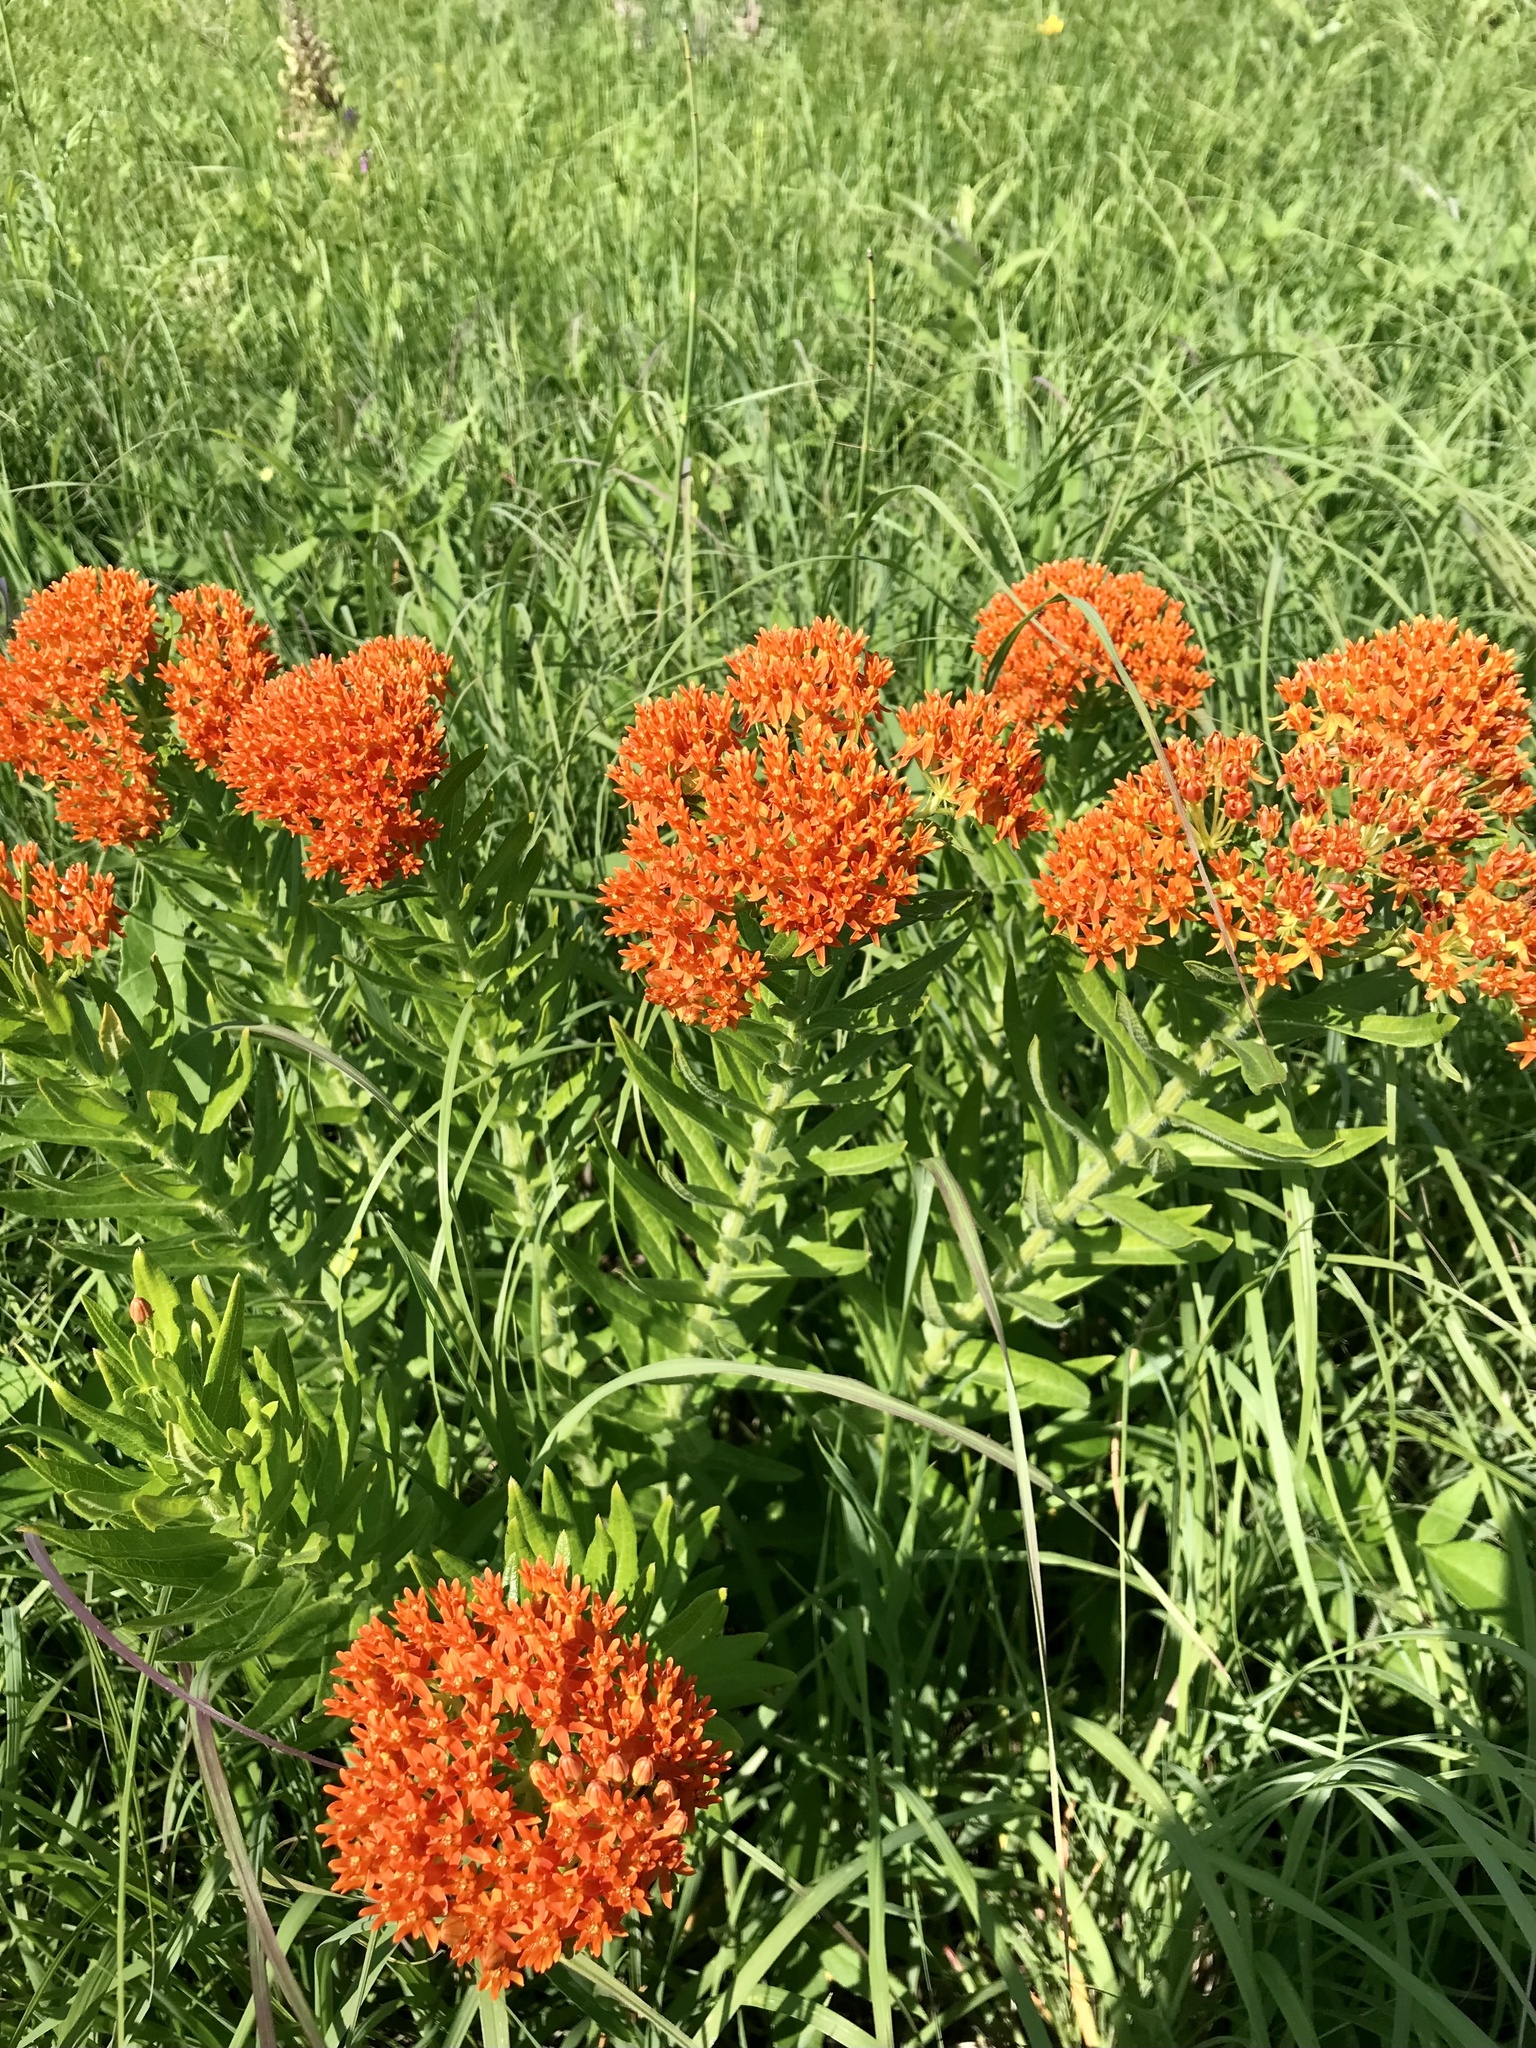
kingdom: Plantae
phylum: Tracheophyta
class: Magnoliopsida
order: Gentianales
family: Apocynaceae
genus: Asclepias
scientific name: Asclepias tuberosa
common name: Butterfly milkweed
